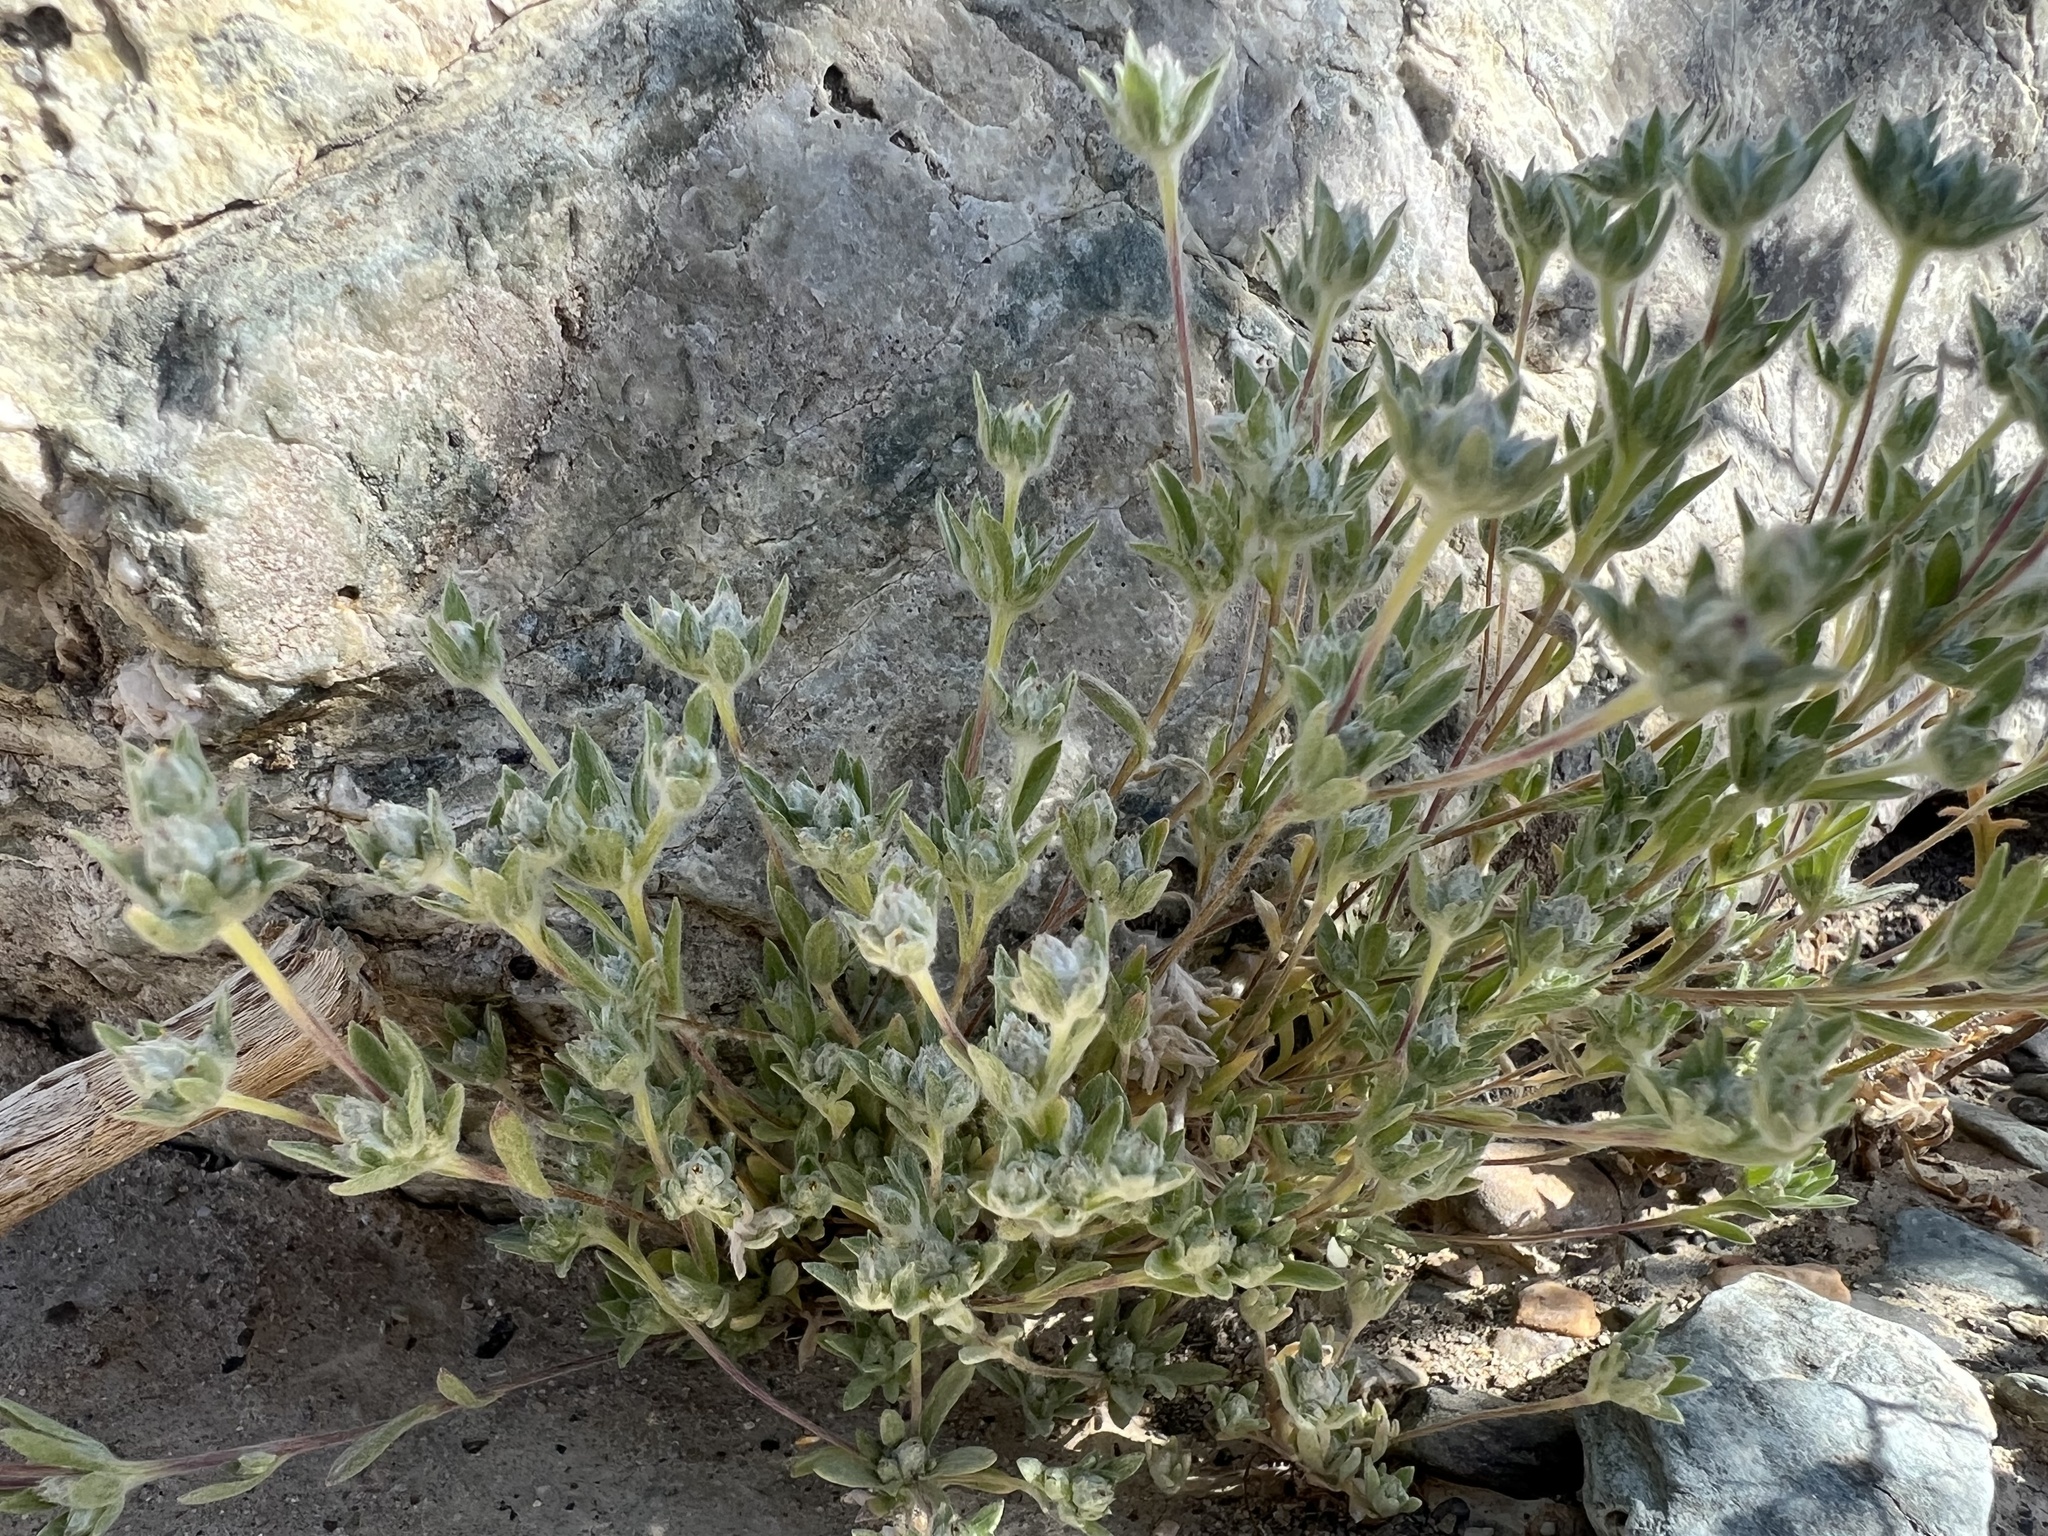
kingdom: Plantae
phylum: Tracheophyta
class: Magnoliopsida
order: Asterales
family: Asteraceae
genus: Stylocline
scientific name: Stylocline psilocarphoides
